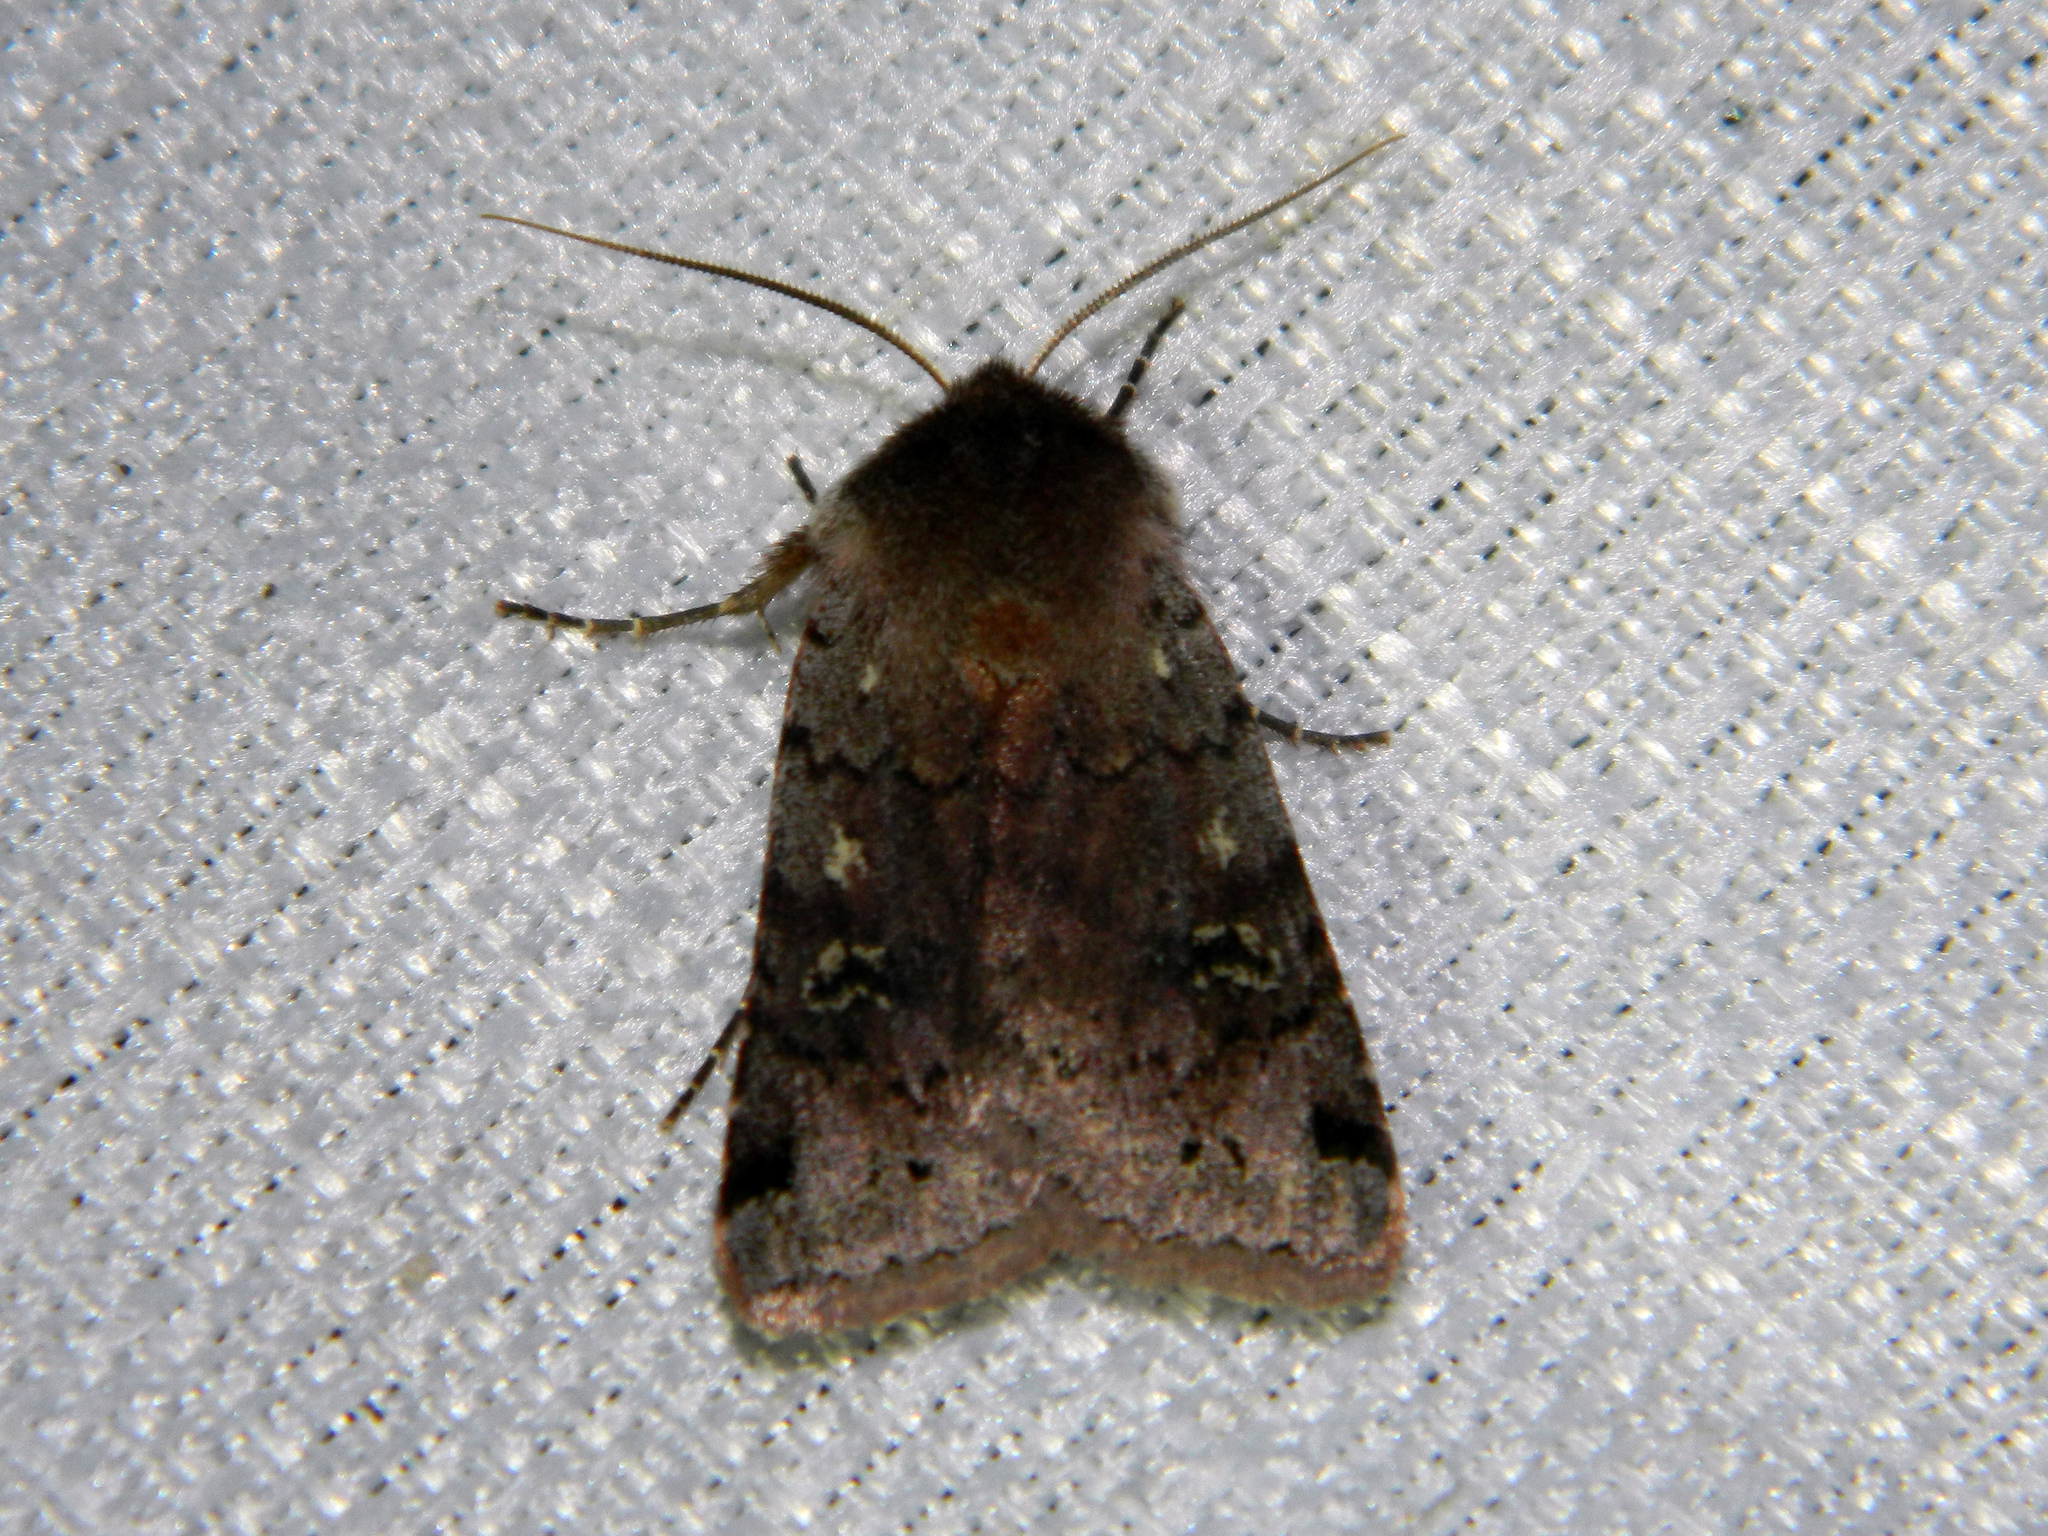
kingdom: Animalia
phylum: Arthropoda
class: Insecta
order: Lepidoptera
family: Noctuidae
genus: Cerastis
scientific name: Cerastis fishii
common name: Fish's dart
